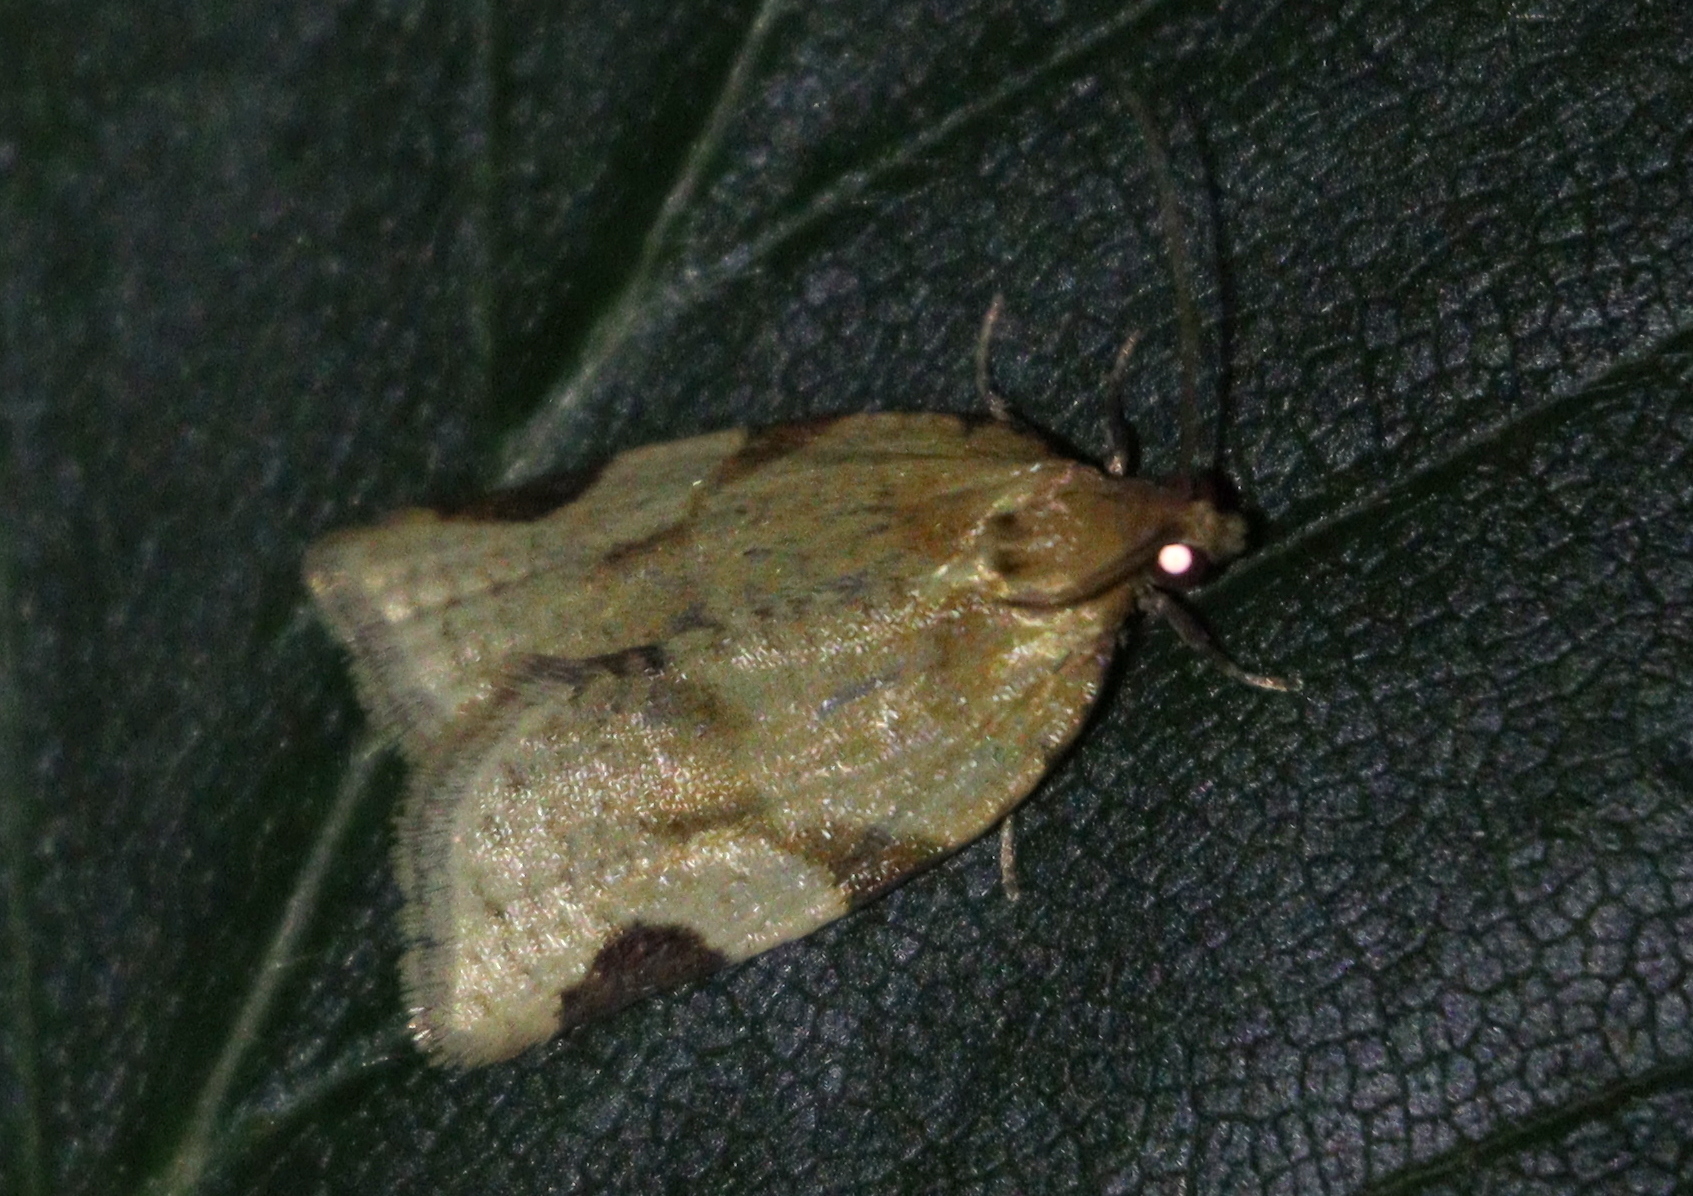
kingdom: Animalia
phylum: Arthropoda
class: Insecta
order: Lepidoptera
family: Tortricidae
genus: Paramesia
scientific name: Paramesia gnomana
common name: Small straw twist
